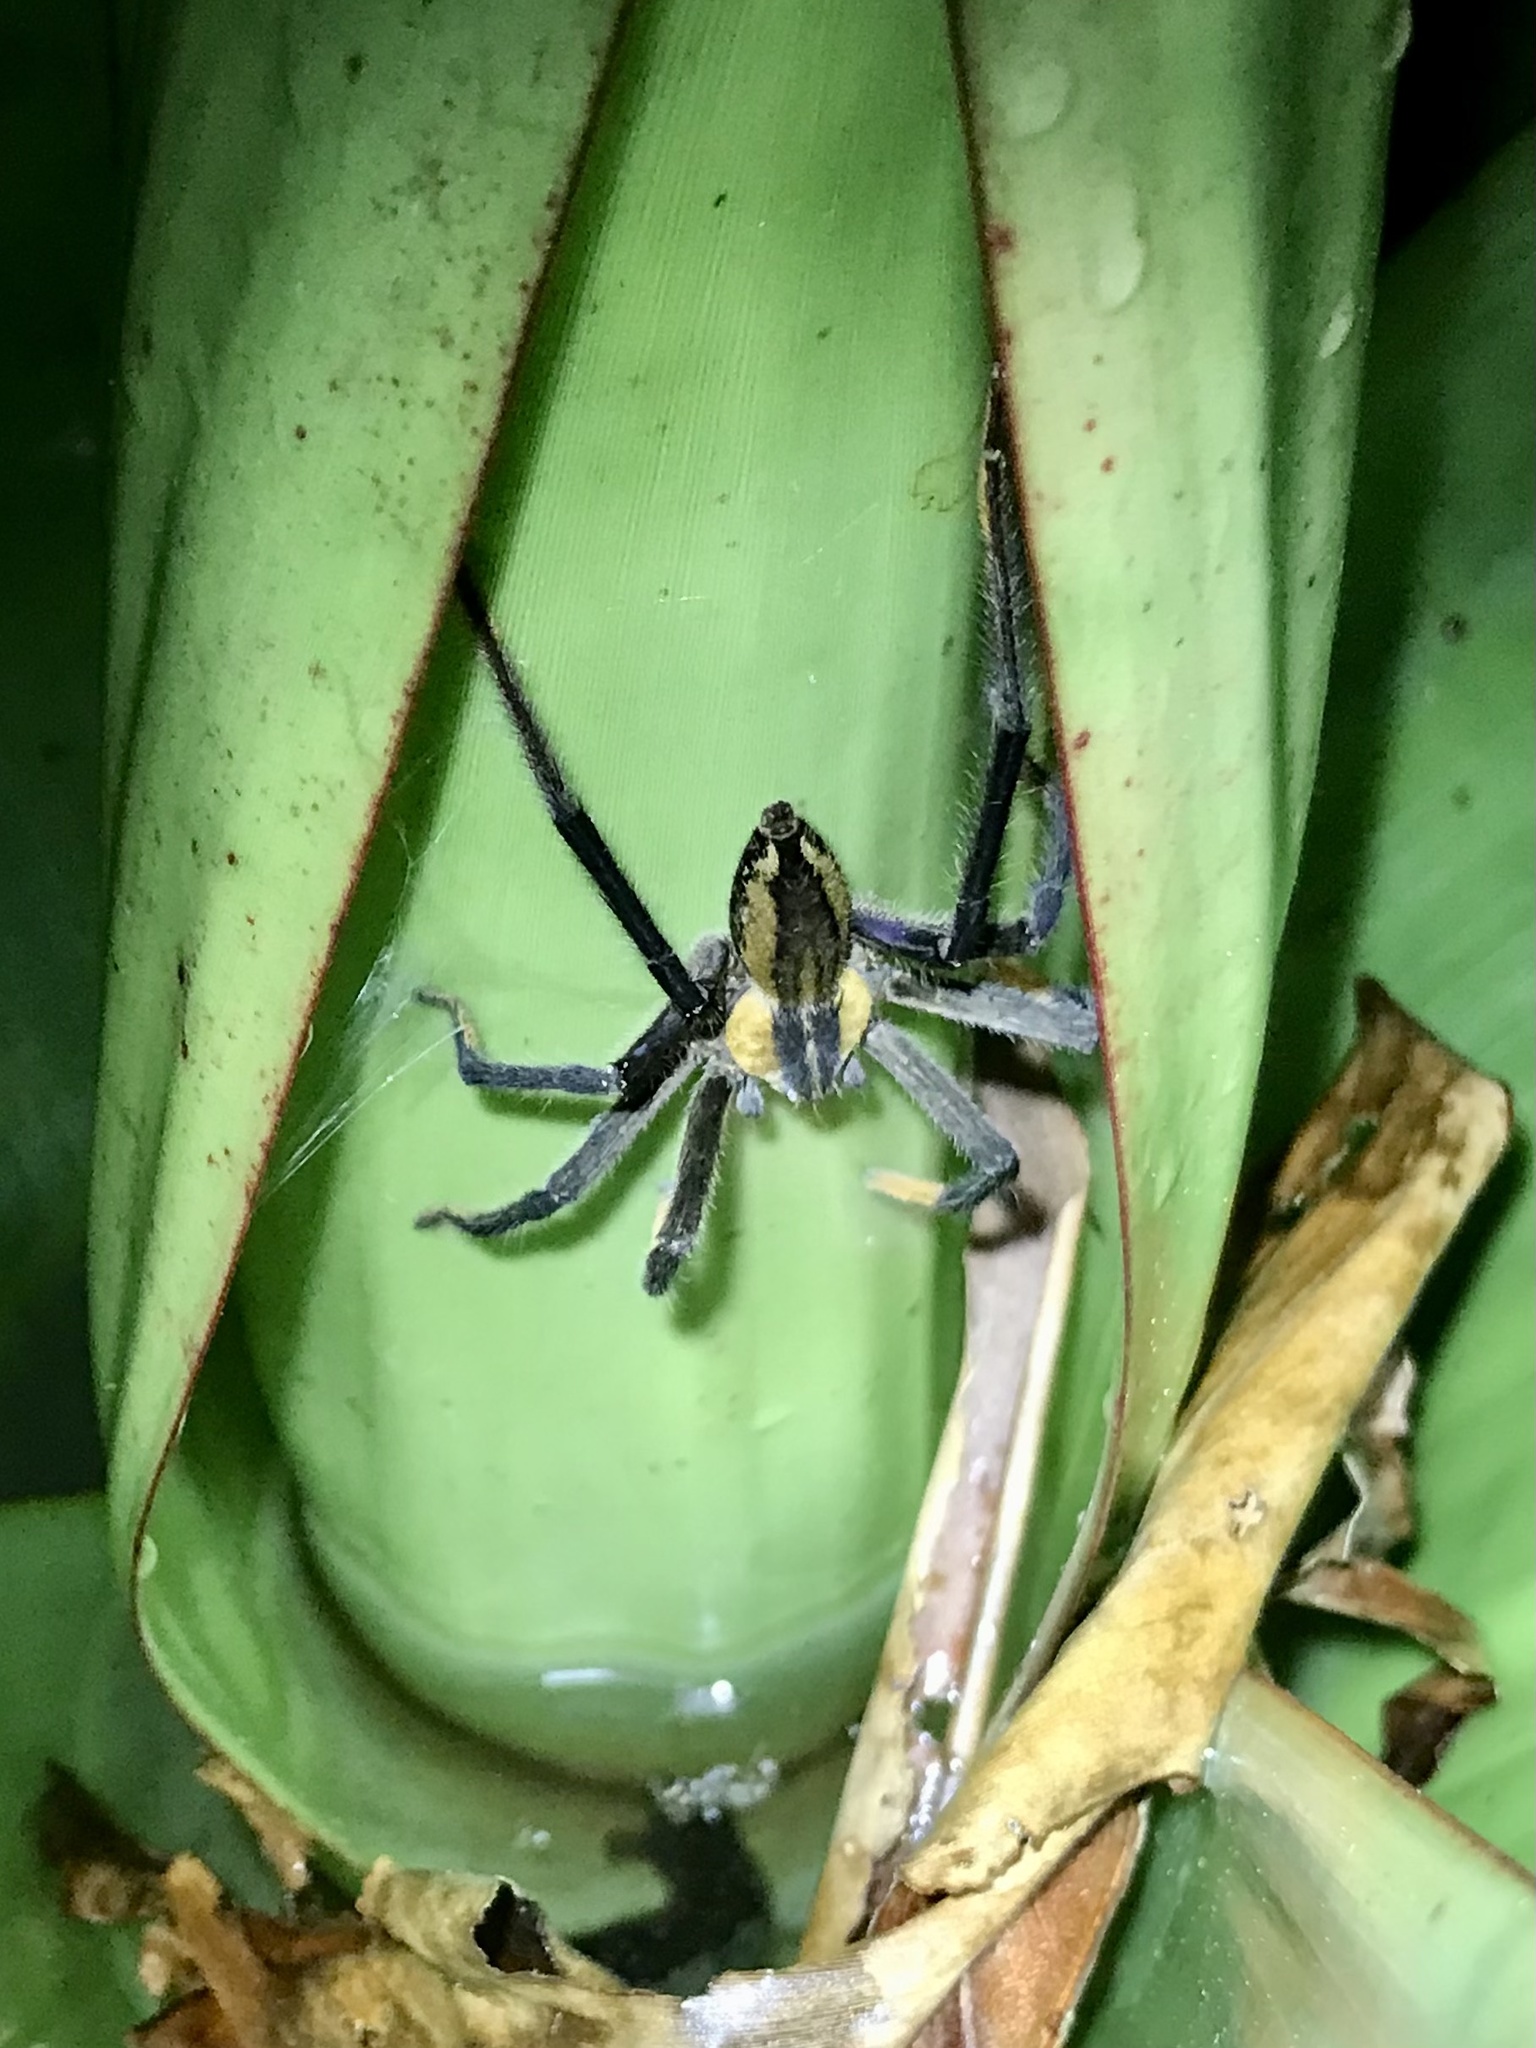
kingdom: Animalia
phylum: Arthropoda
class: Arachnida
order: Araneae
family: Trechaleidae
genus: Cupiennius
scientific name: Cupiennius getazi
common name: Wandering spiders
